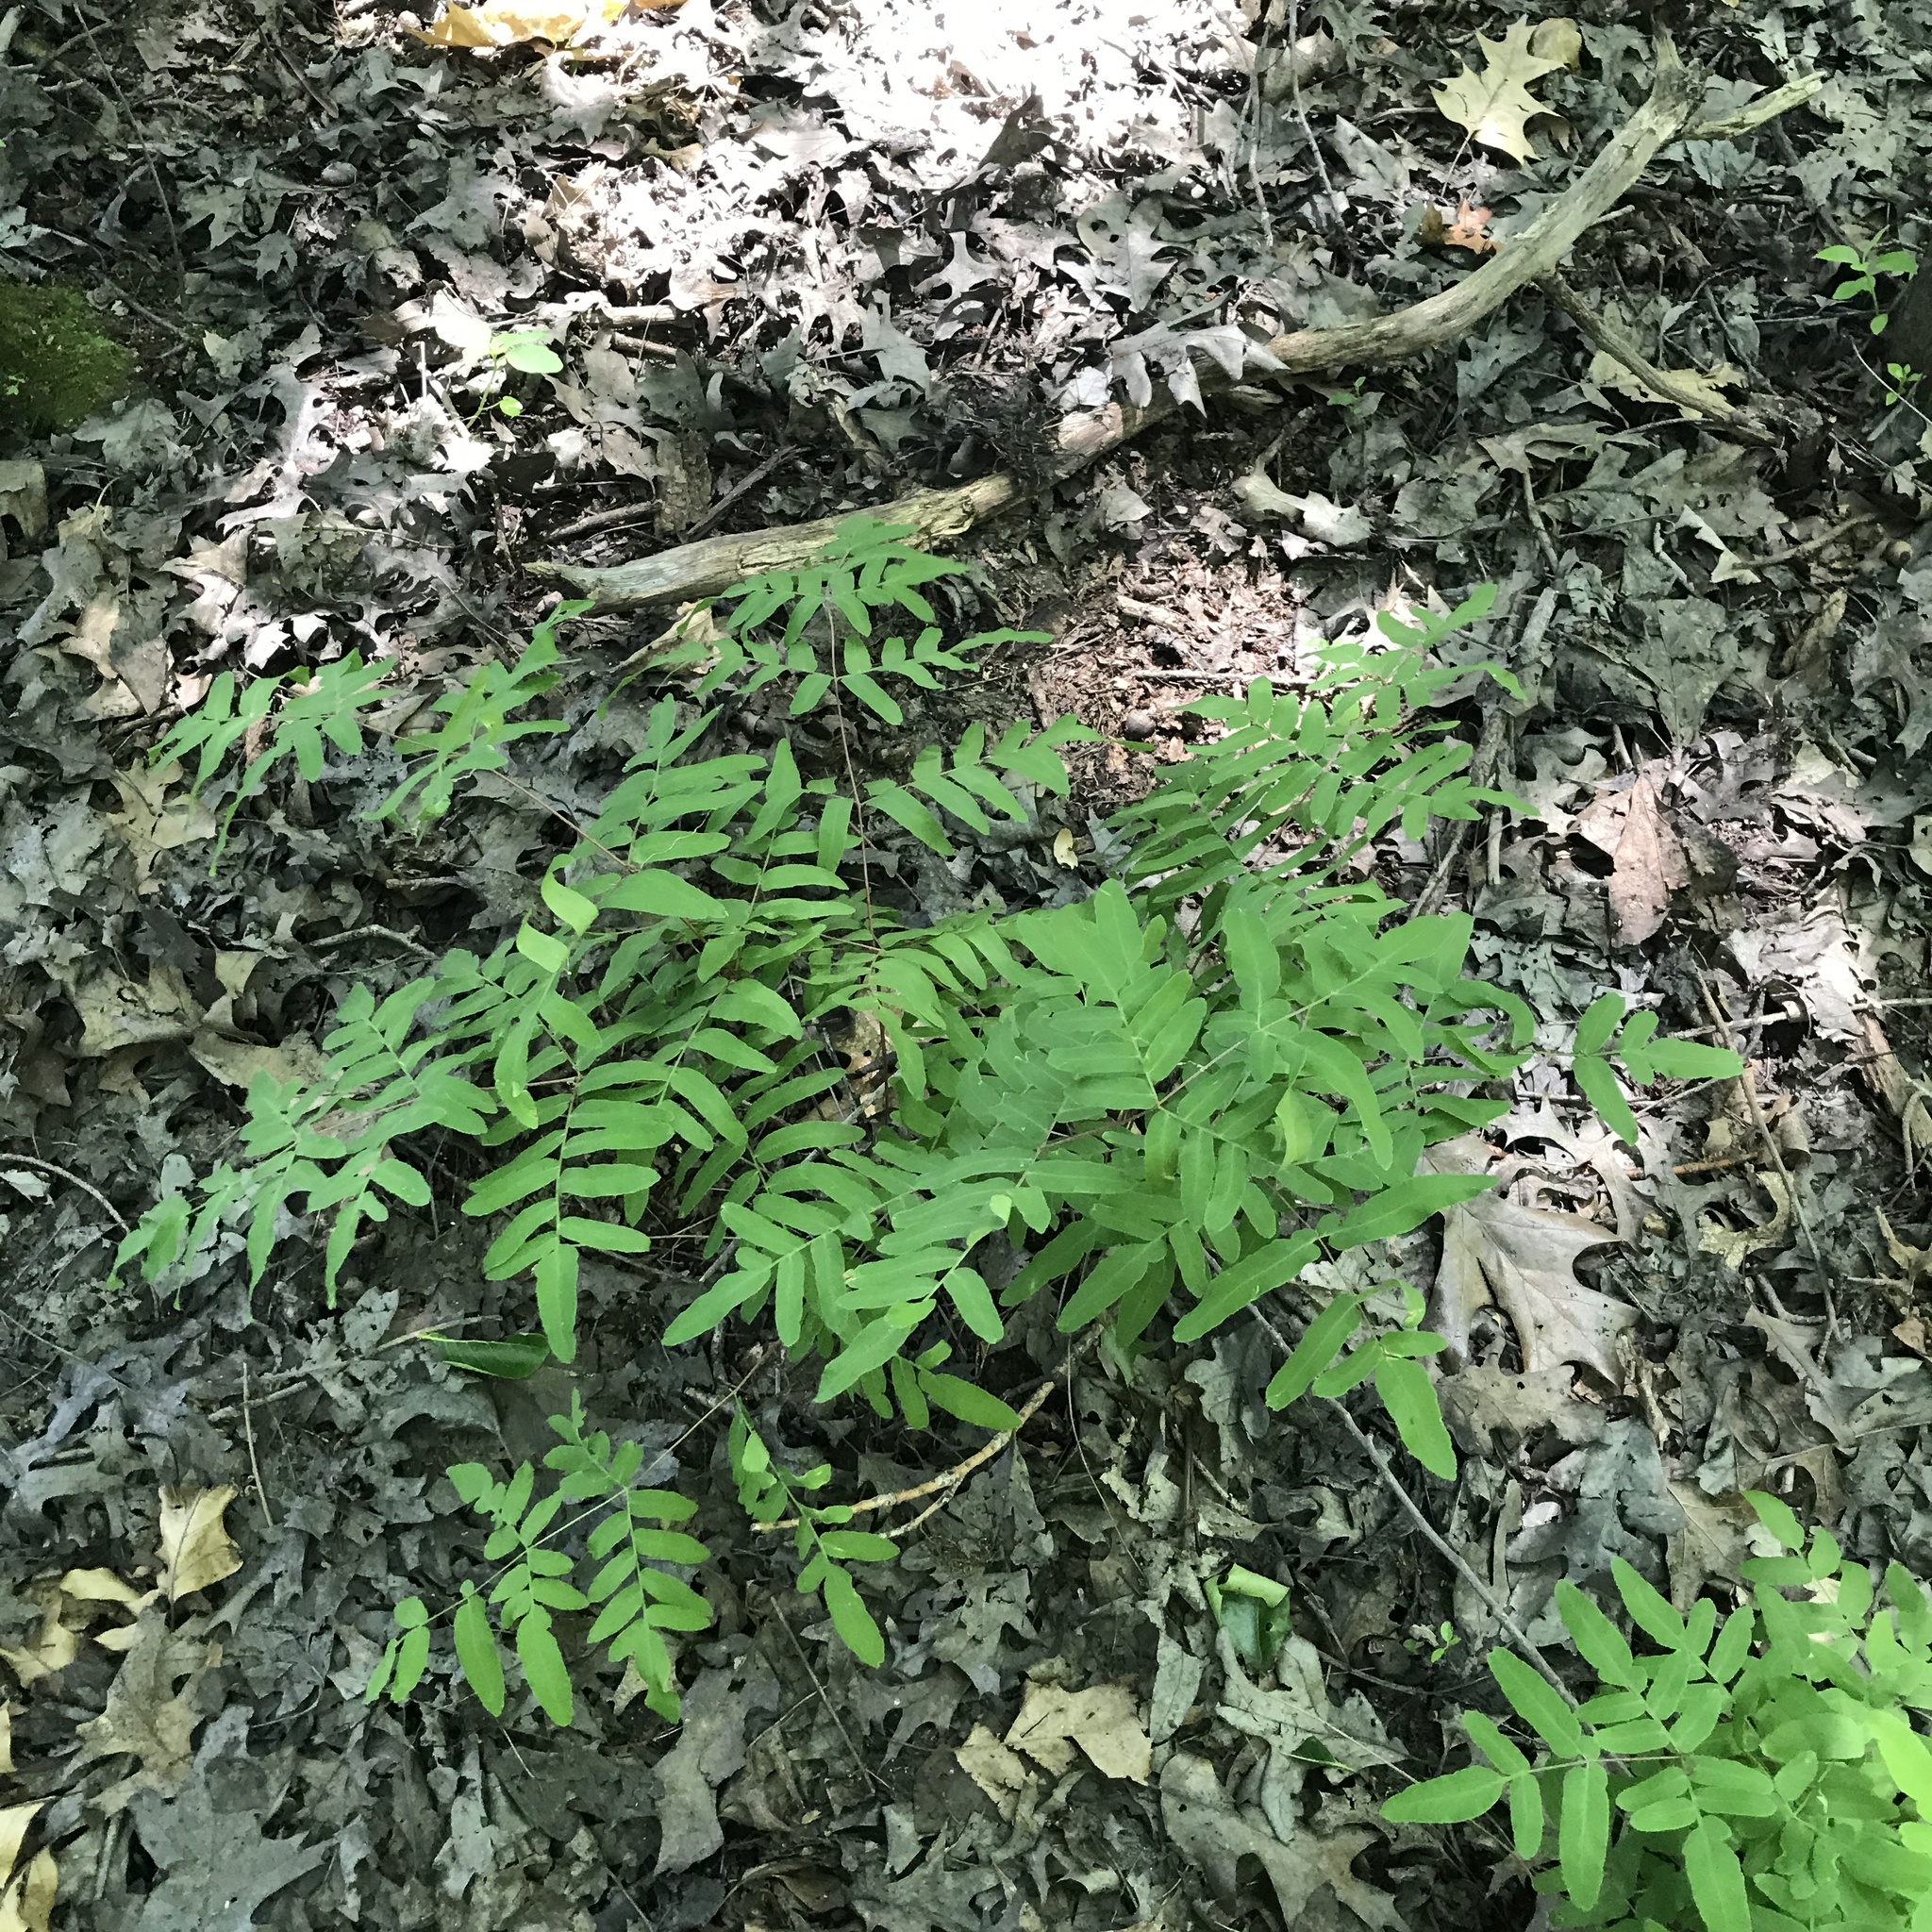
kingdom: Plantae
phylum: Tracheophyta
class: Polypodiopsida
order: Osmundales
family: Osmundaceae
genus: Osmunda
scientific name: Osmunda spectabilis
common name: American royal fern
